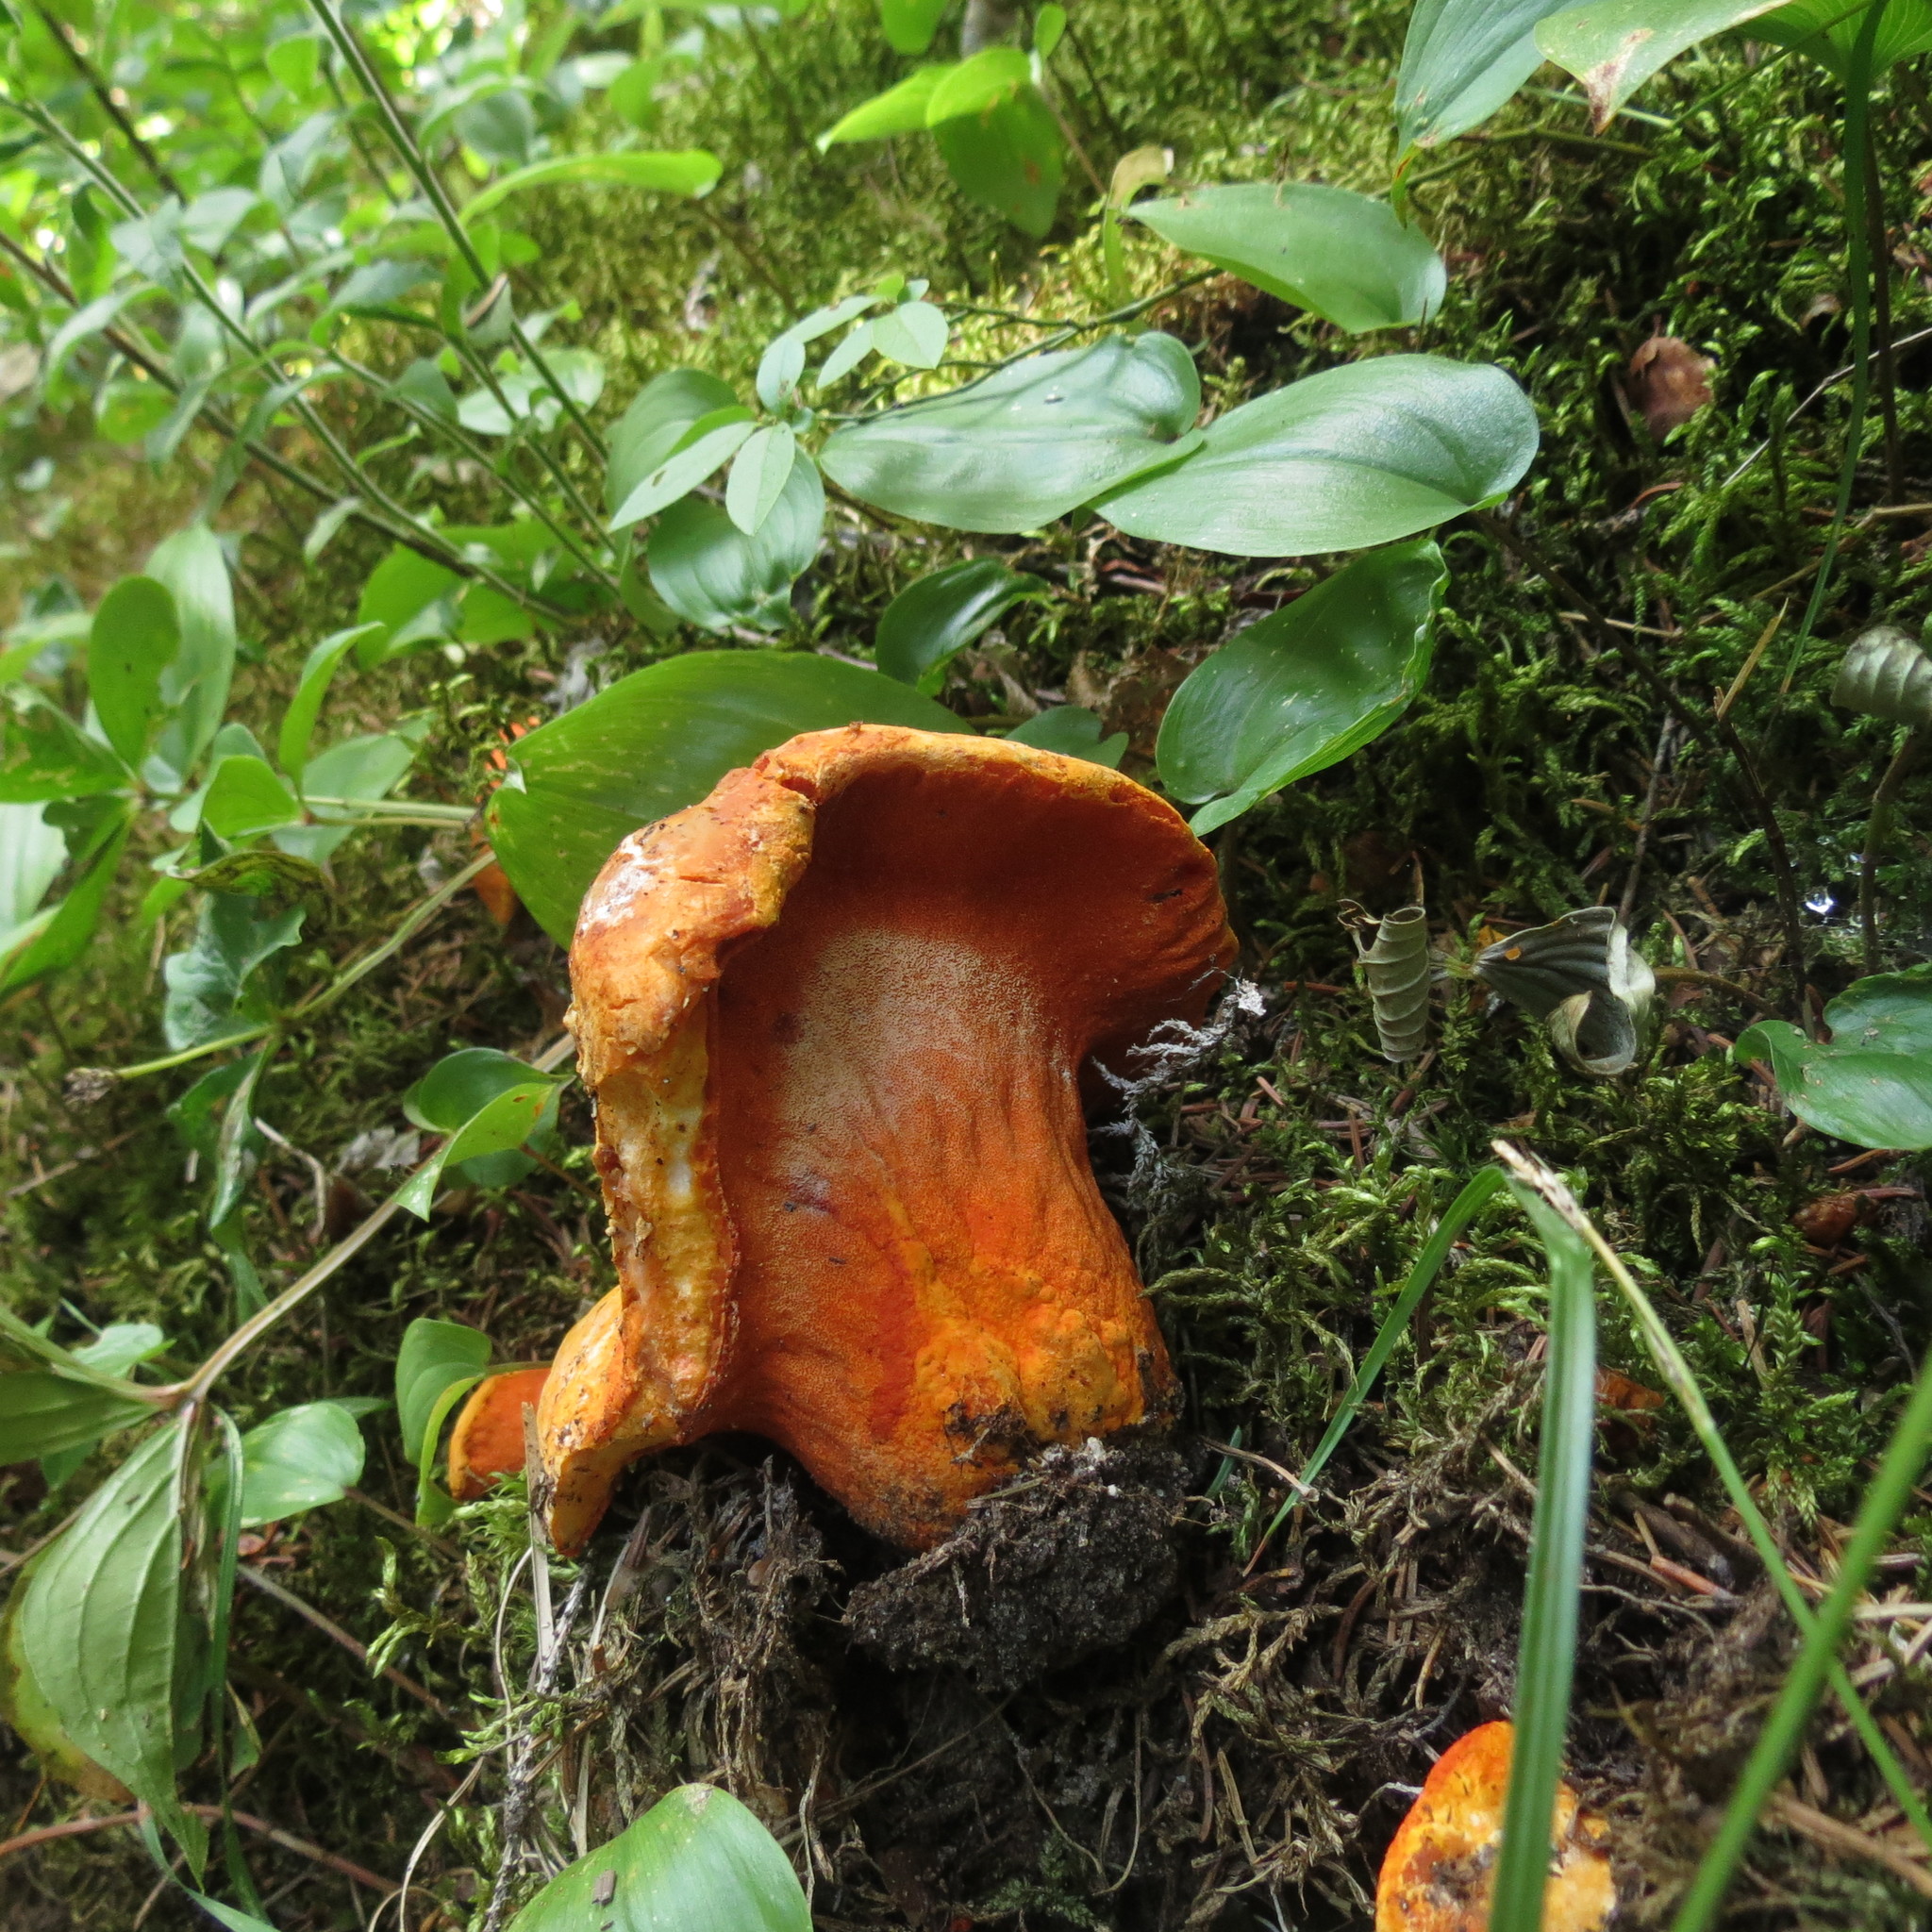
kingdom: Fungi
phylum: Ascomycota
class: Sordariomycetes
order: Hypocreales
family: Hypocreaceae
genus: Hypomyces
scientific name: Hypomyces lactifluorum
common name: Lobster mushroom
